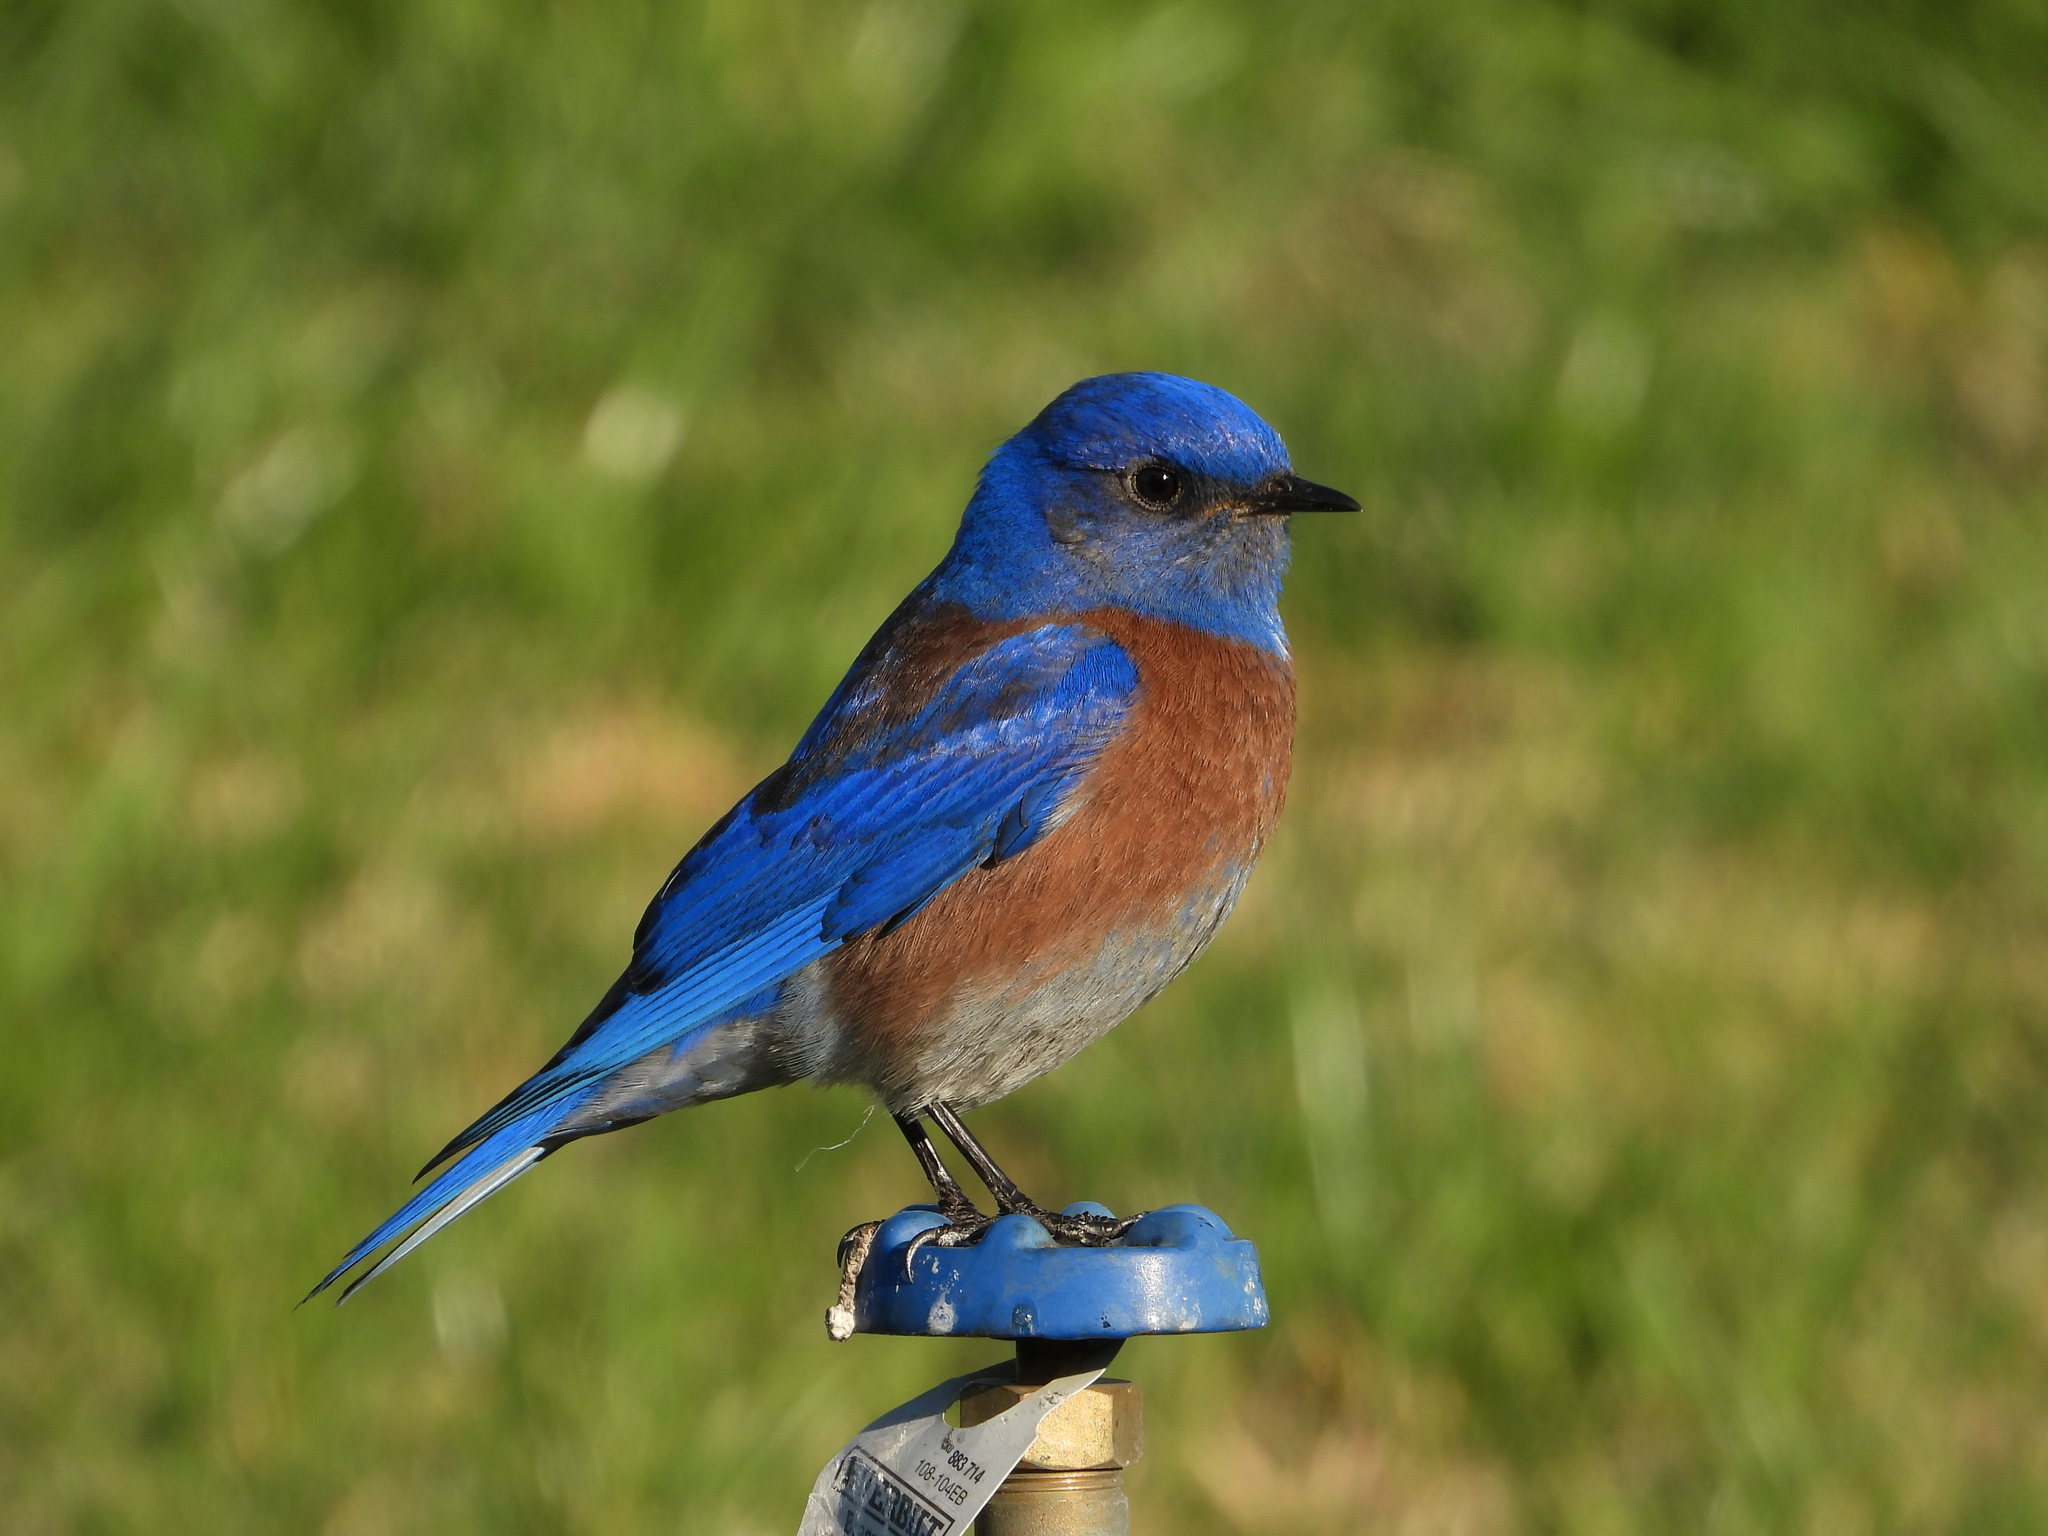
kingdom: Animalia
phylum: Chordata
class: Aves
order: Passeriformes
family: Turdidae
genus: Sialia
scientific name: Sialia mexicana
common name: Western bluebird
